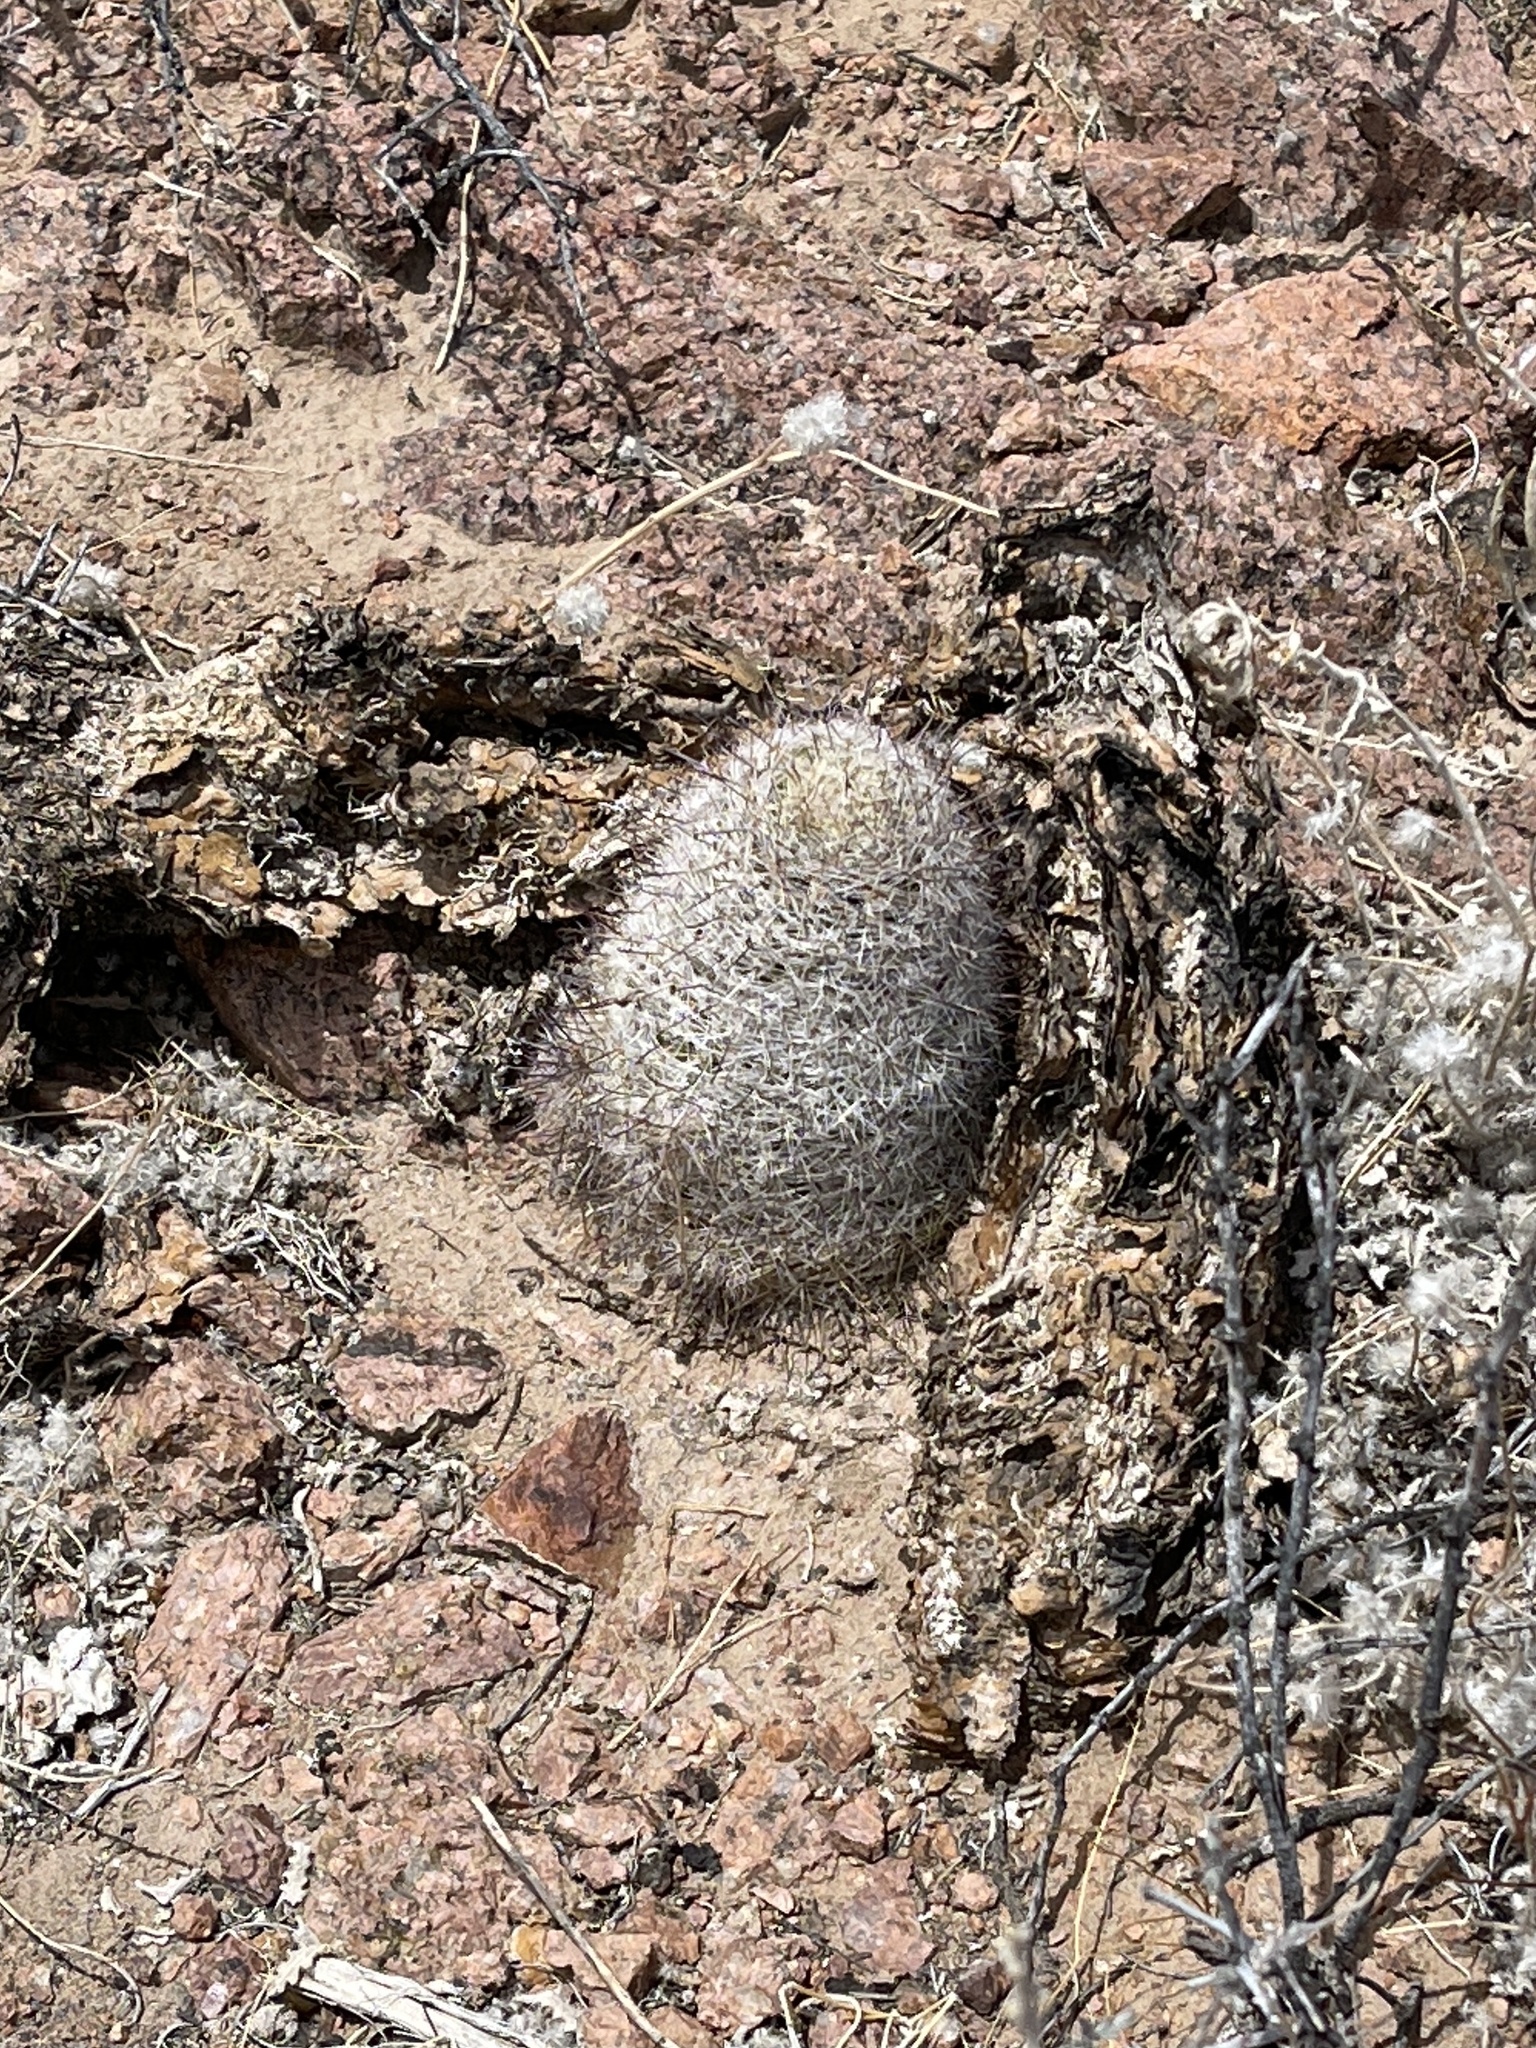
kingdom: Plantae
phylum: Tracheophyta
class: Magnoliopsida
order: Caryophyllales
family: Cactaceae
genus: Cochemiea
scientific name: Cochemiea grahamii
